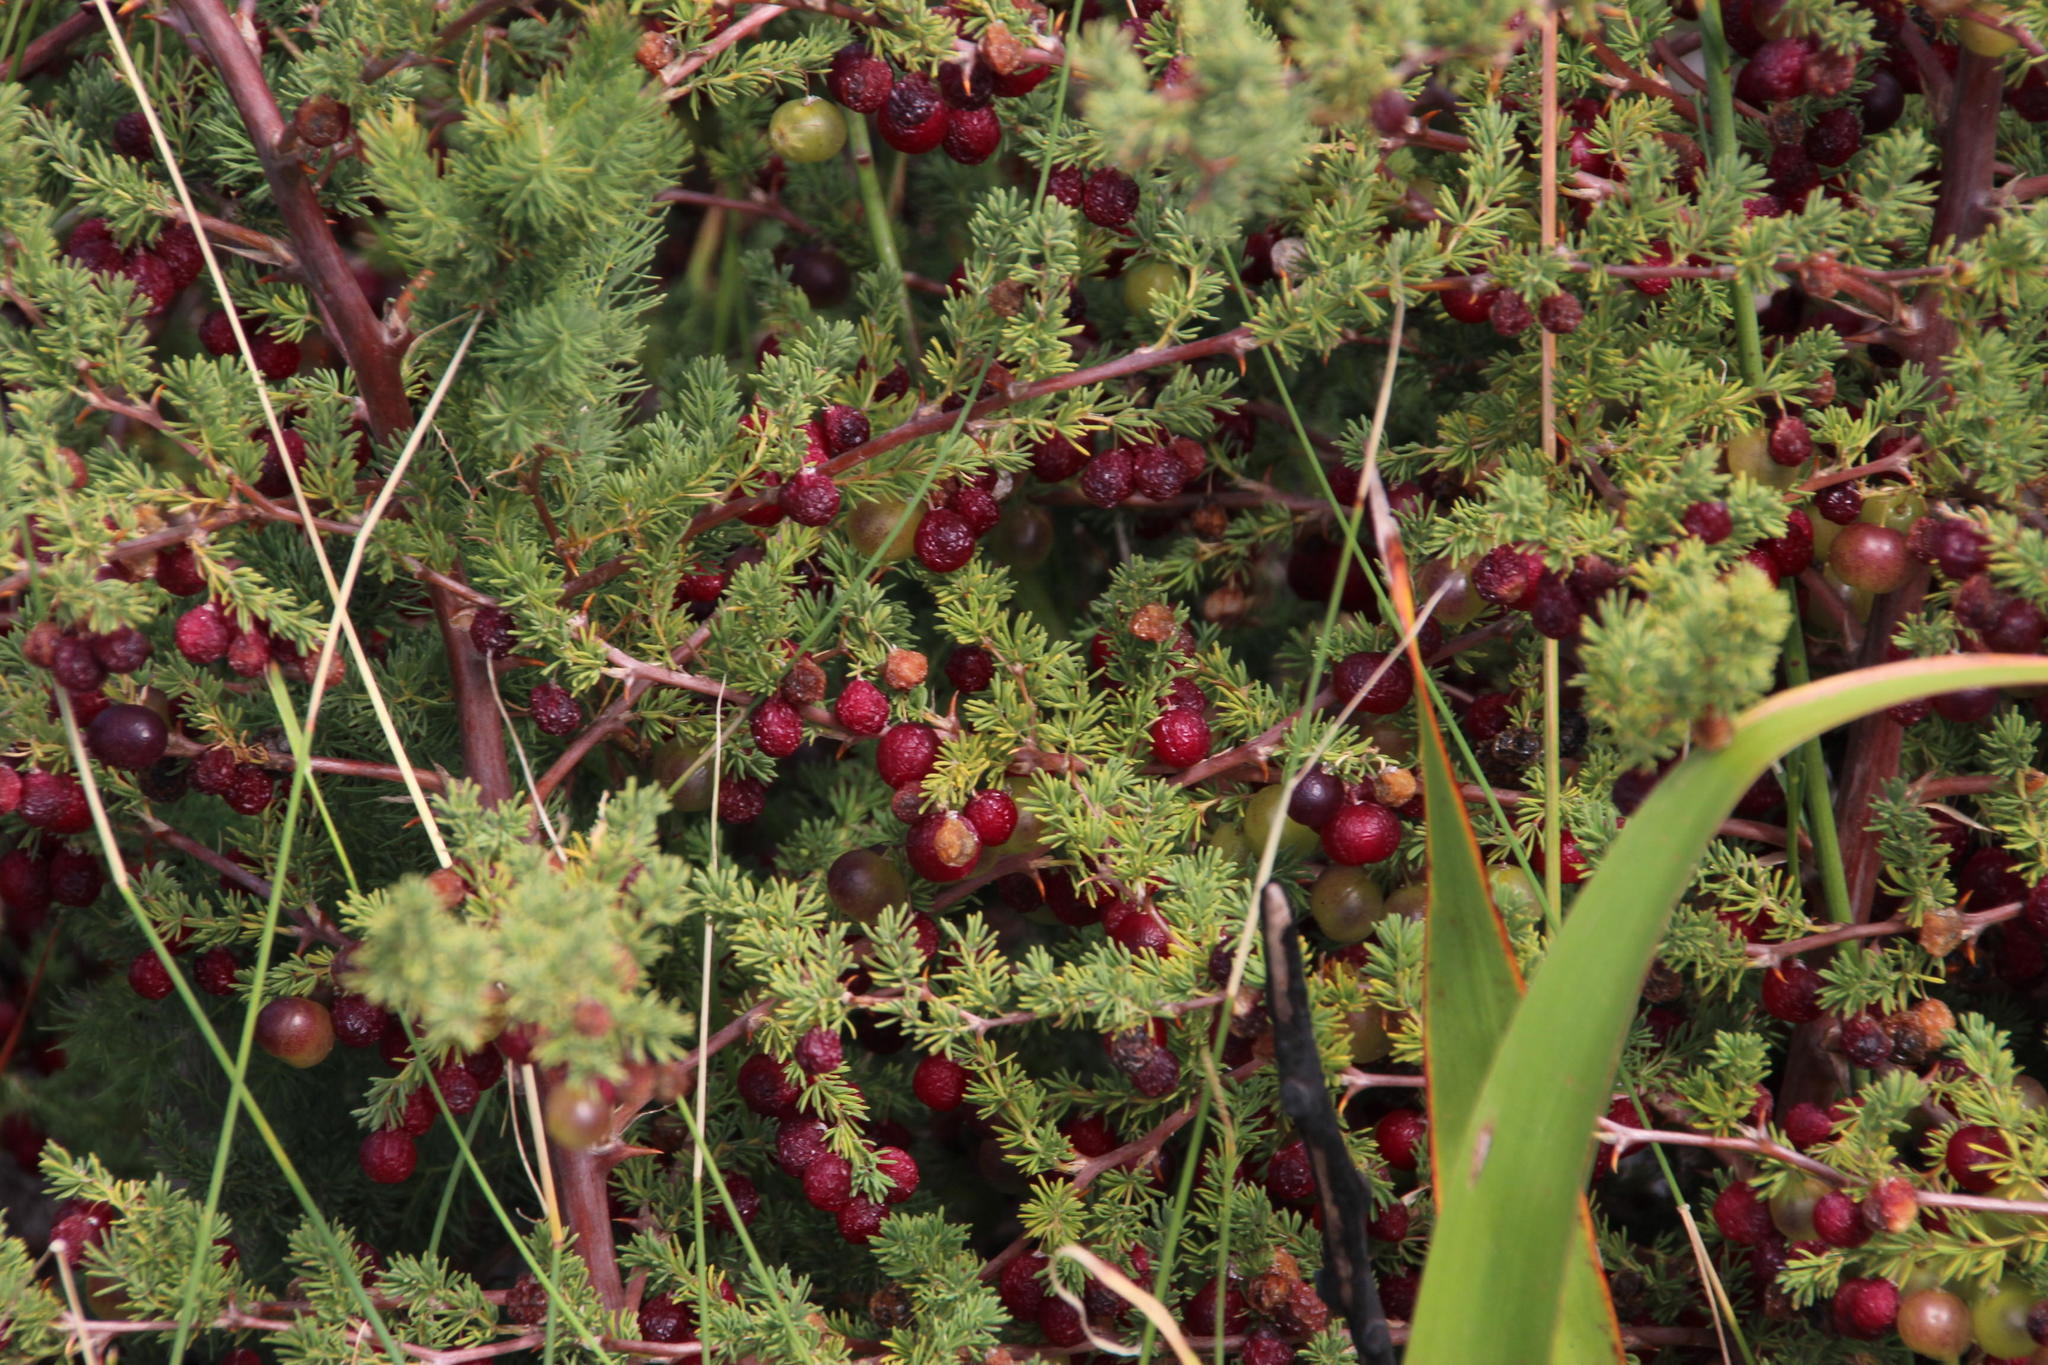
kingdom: Plantae
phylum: Tracheophyta
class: Liliopsida
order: Asparagales
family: Asparagaceae
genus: Asparagus
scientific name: Asparagus rubicundus
